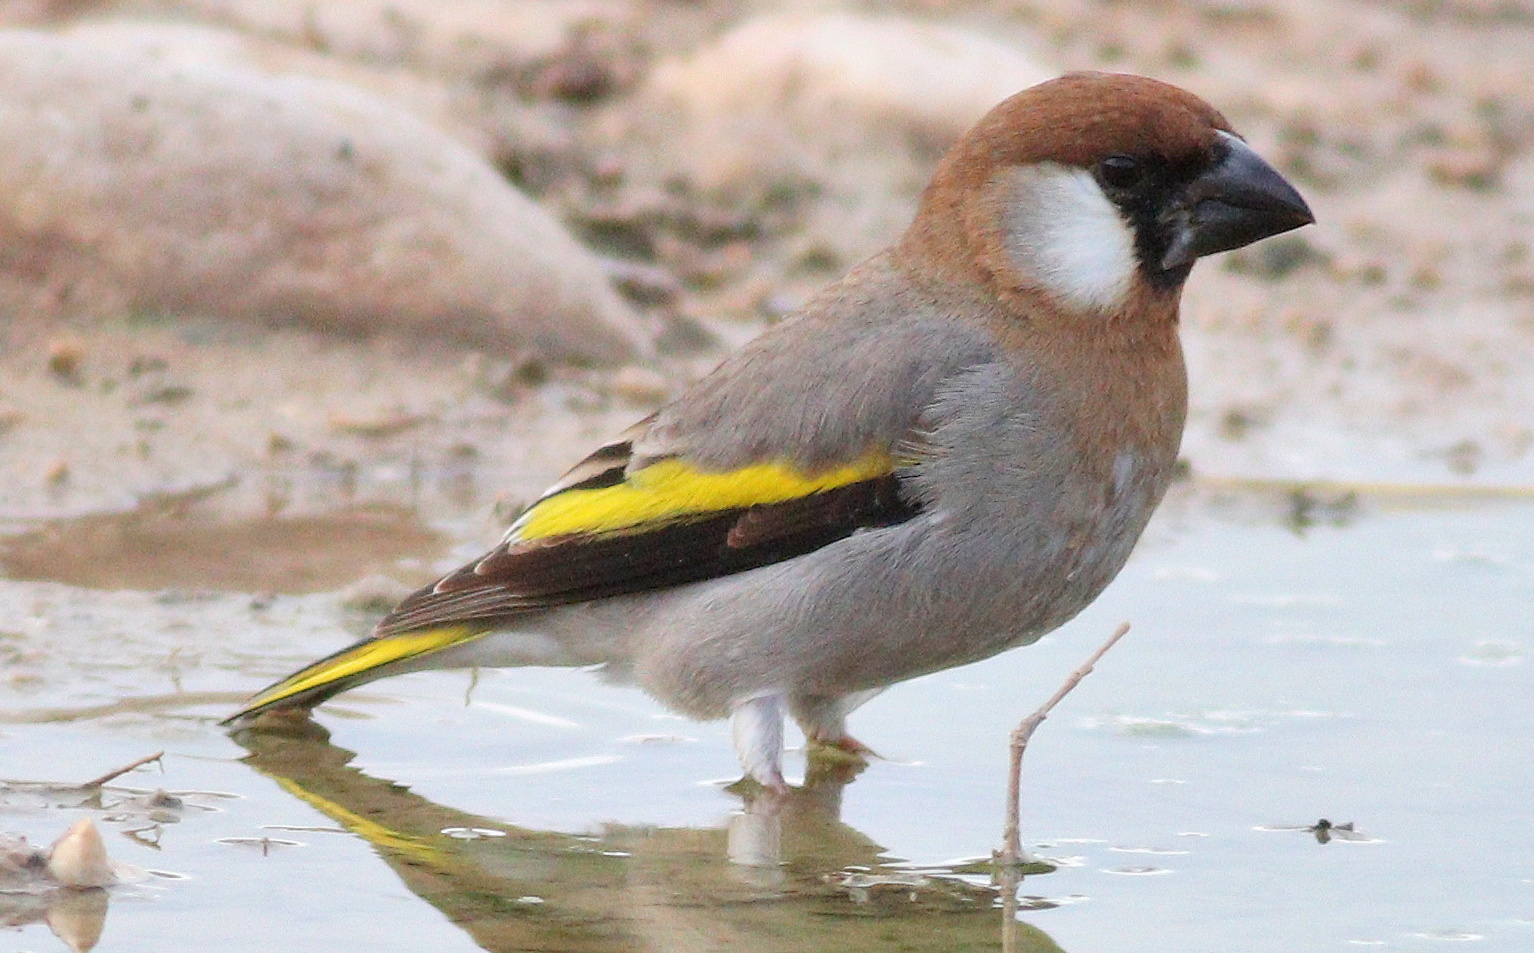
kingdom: Animalia
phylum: Chordata
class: Aves
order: Passeriformes
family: Fringillidae
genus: Rhynchostruthus
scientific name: Rhynchostruthus percivali
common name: Arabian golden-winged grosbeak
